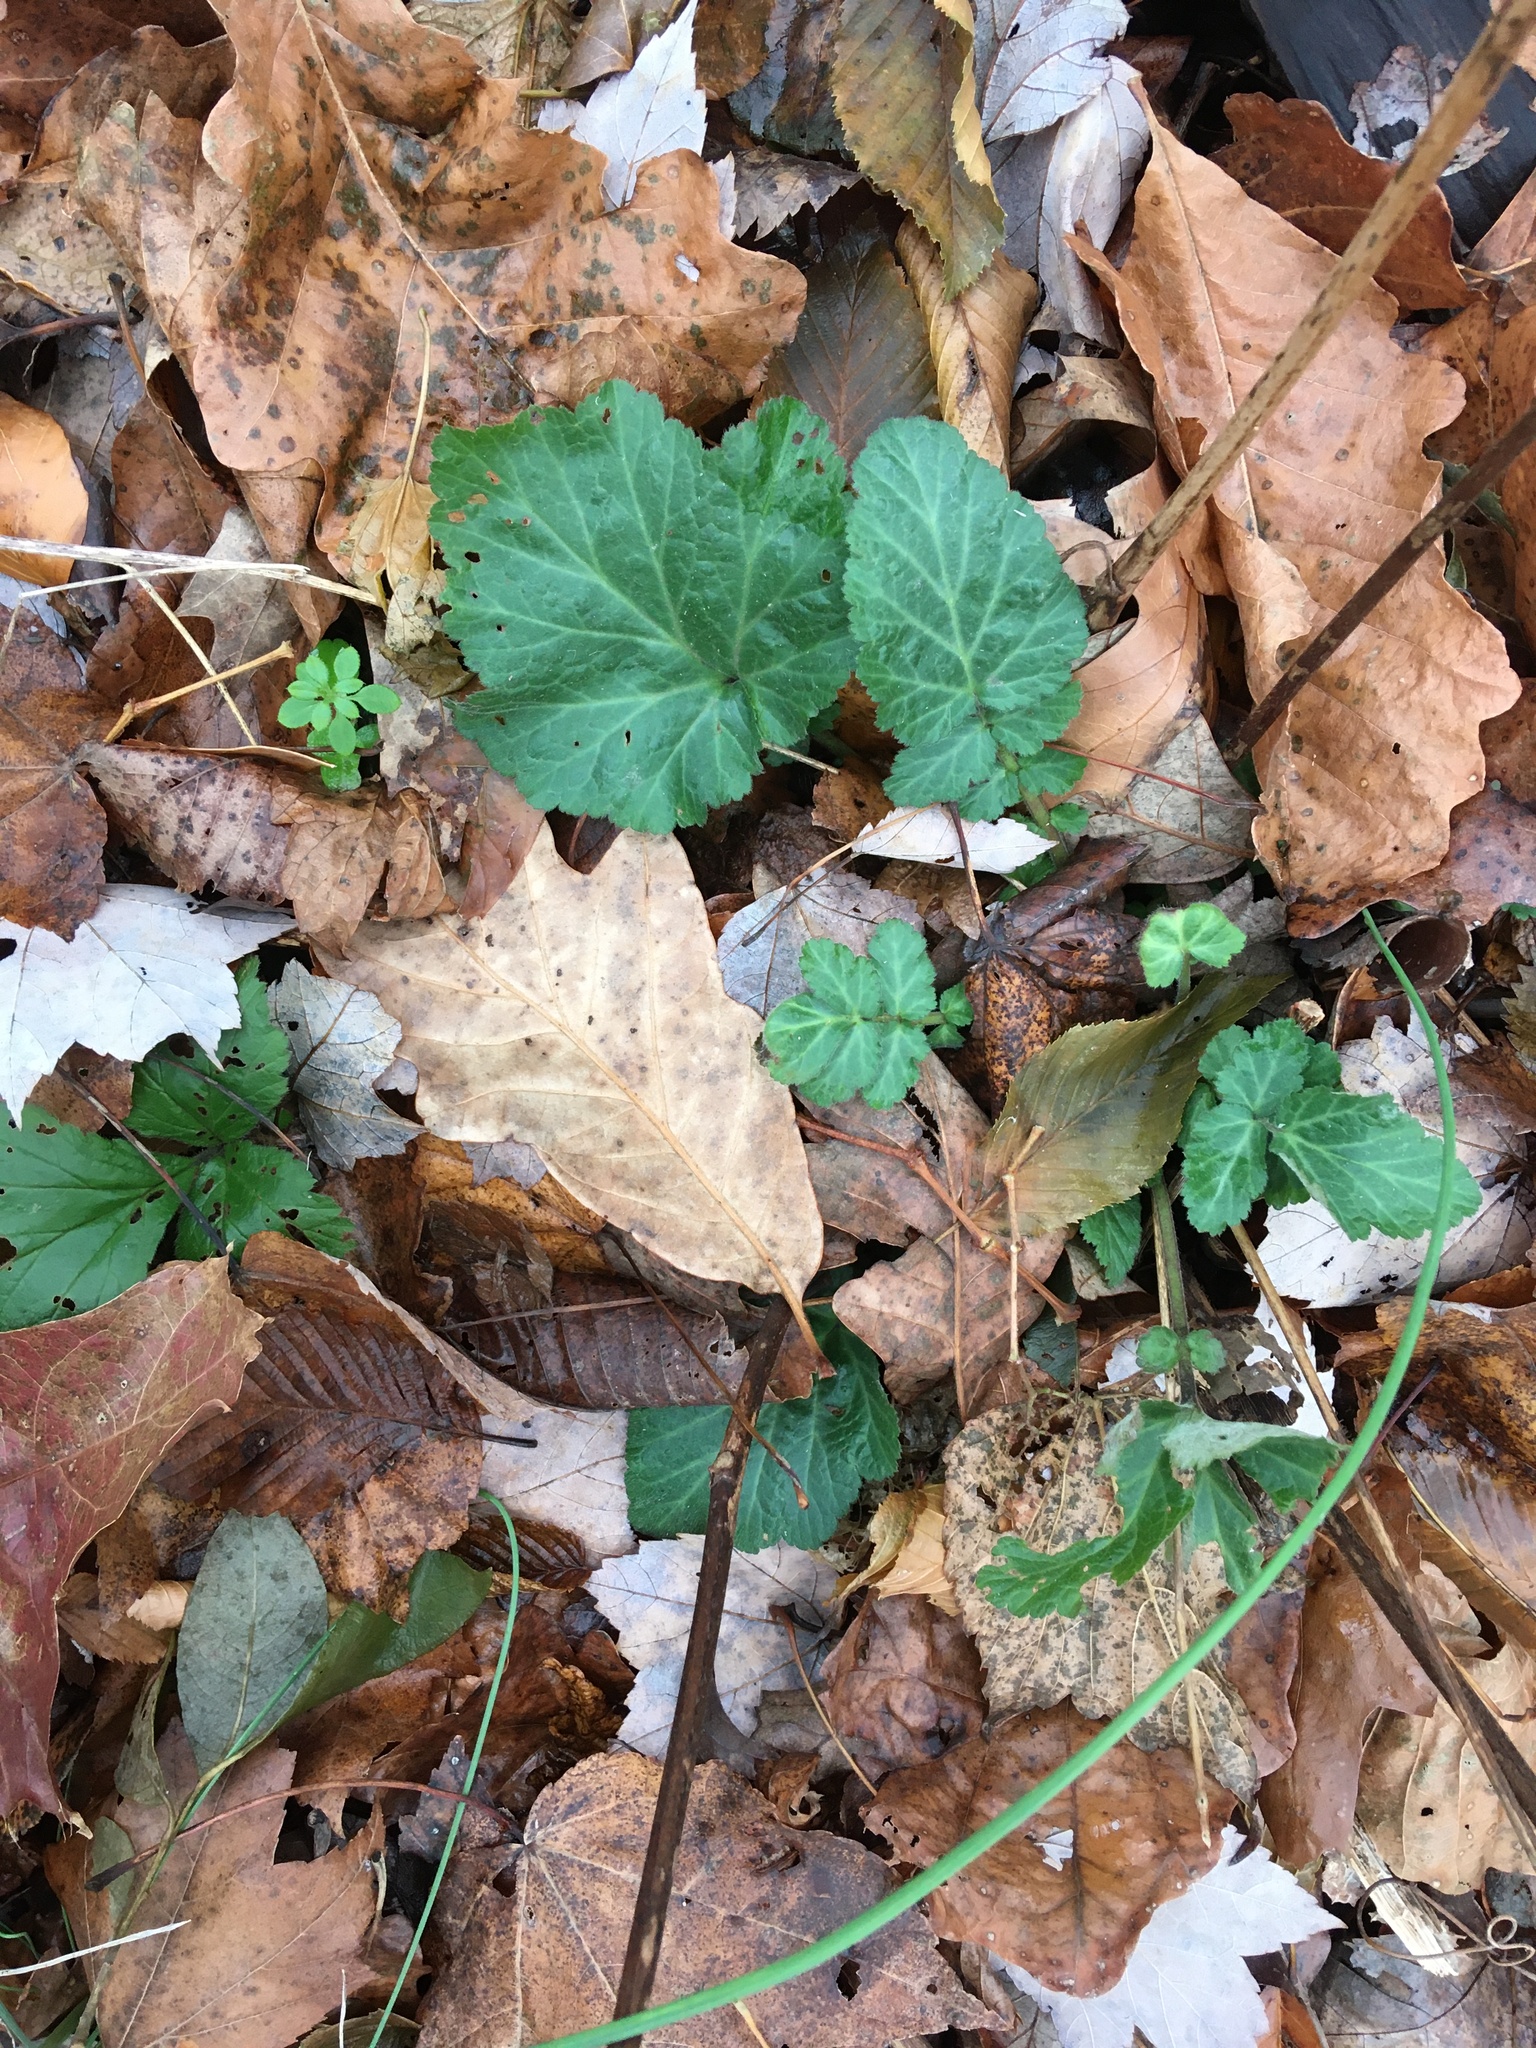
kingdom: Plantae
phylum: Tracheophyta
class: Magnoliopsida
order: Rosales
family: Rosaceae
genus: Geum
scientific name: Geum canadense
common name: White avens
